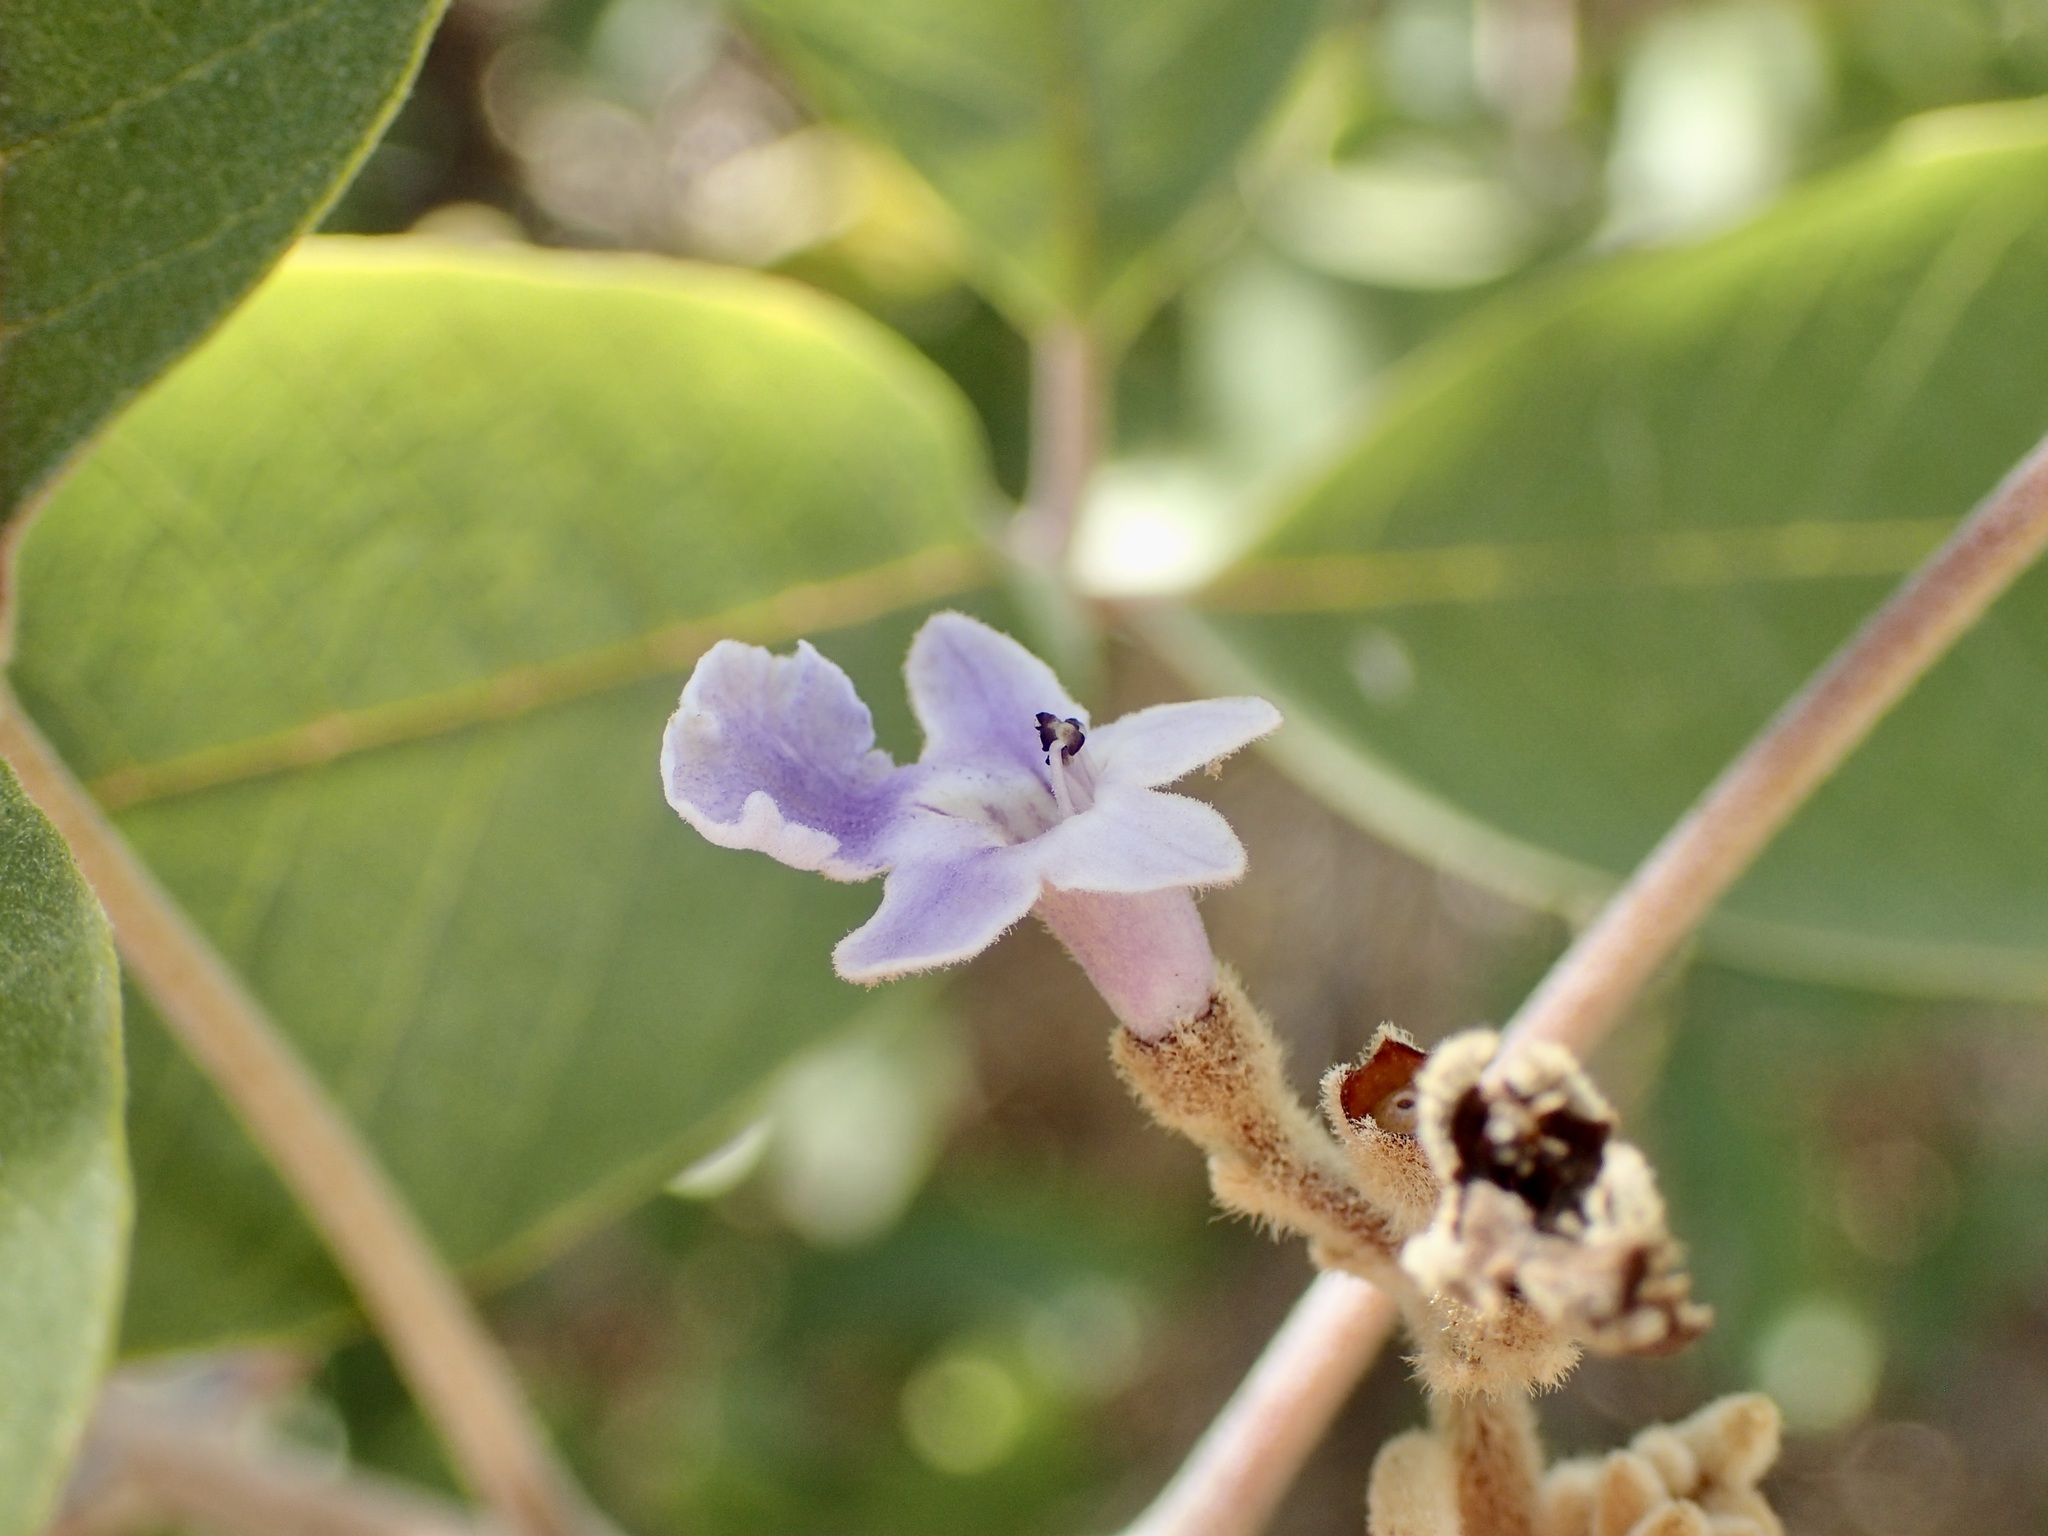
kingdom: Plantae
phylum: Tracheophyta
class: Magnoliopsida
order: Lamiales
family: Lamiaceae
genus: Vitex
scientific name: Vitex mollis
